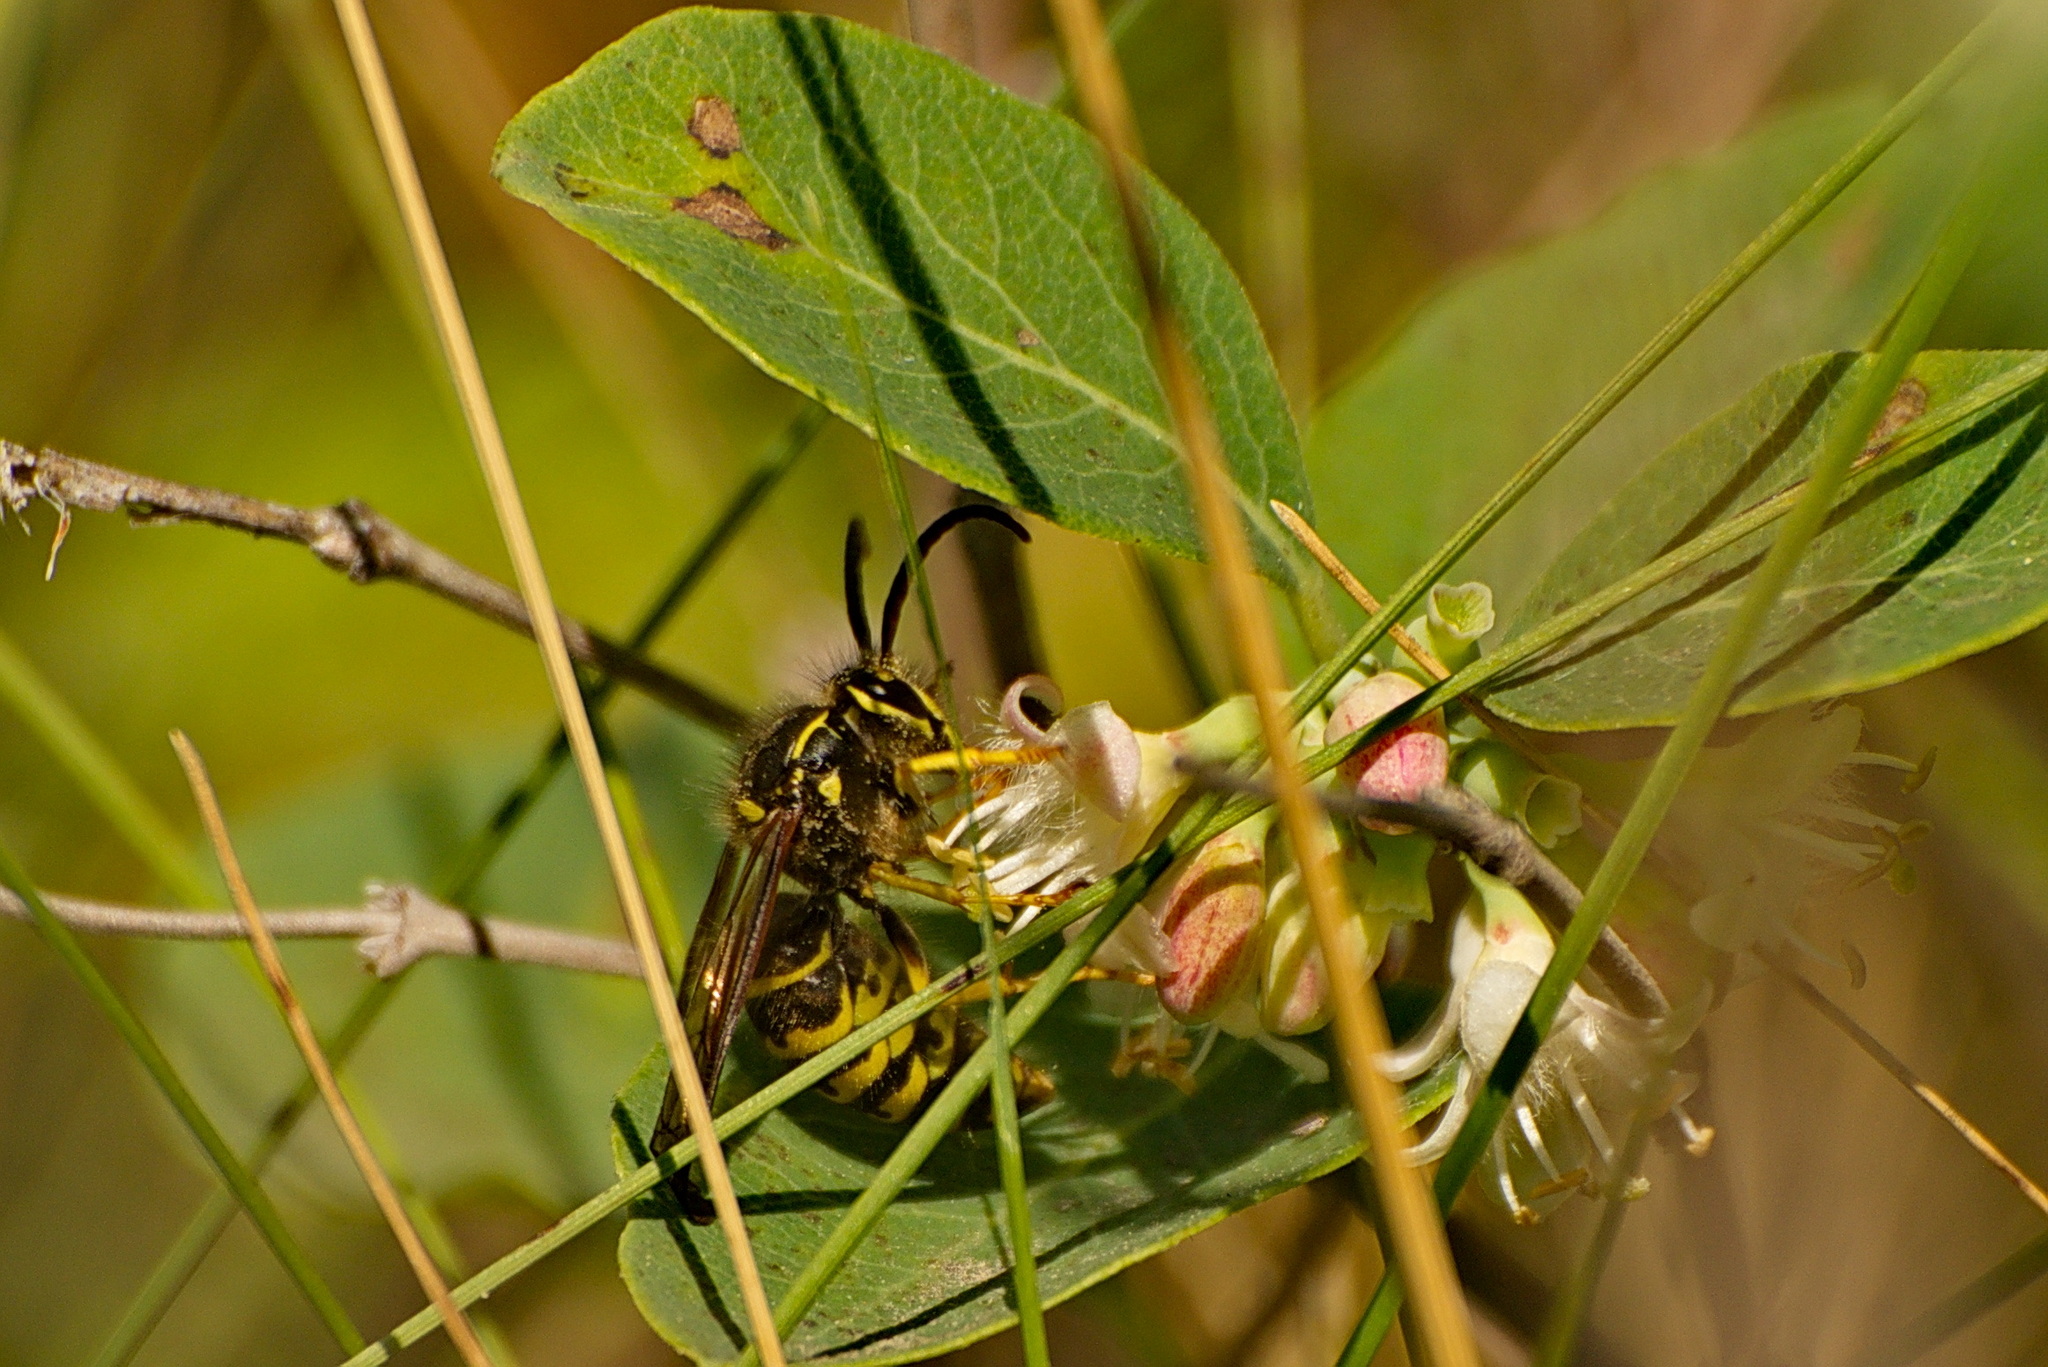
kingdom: Animalia
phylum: Arthropoda
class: Insecta
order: Hymenoptera
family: Vespidae
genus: Dolichovespula
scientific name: Dolichovespula arenaria
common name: Aerial yellowjacket
